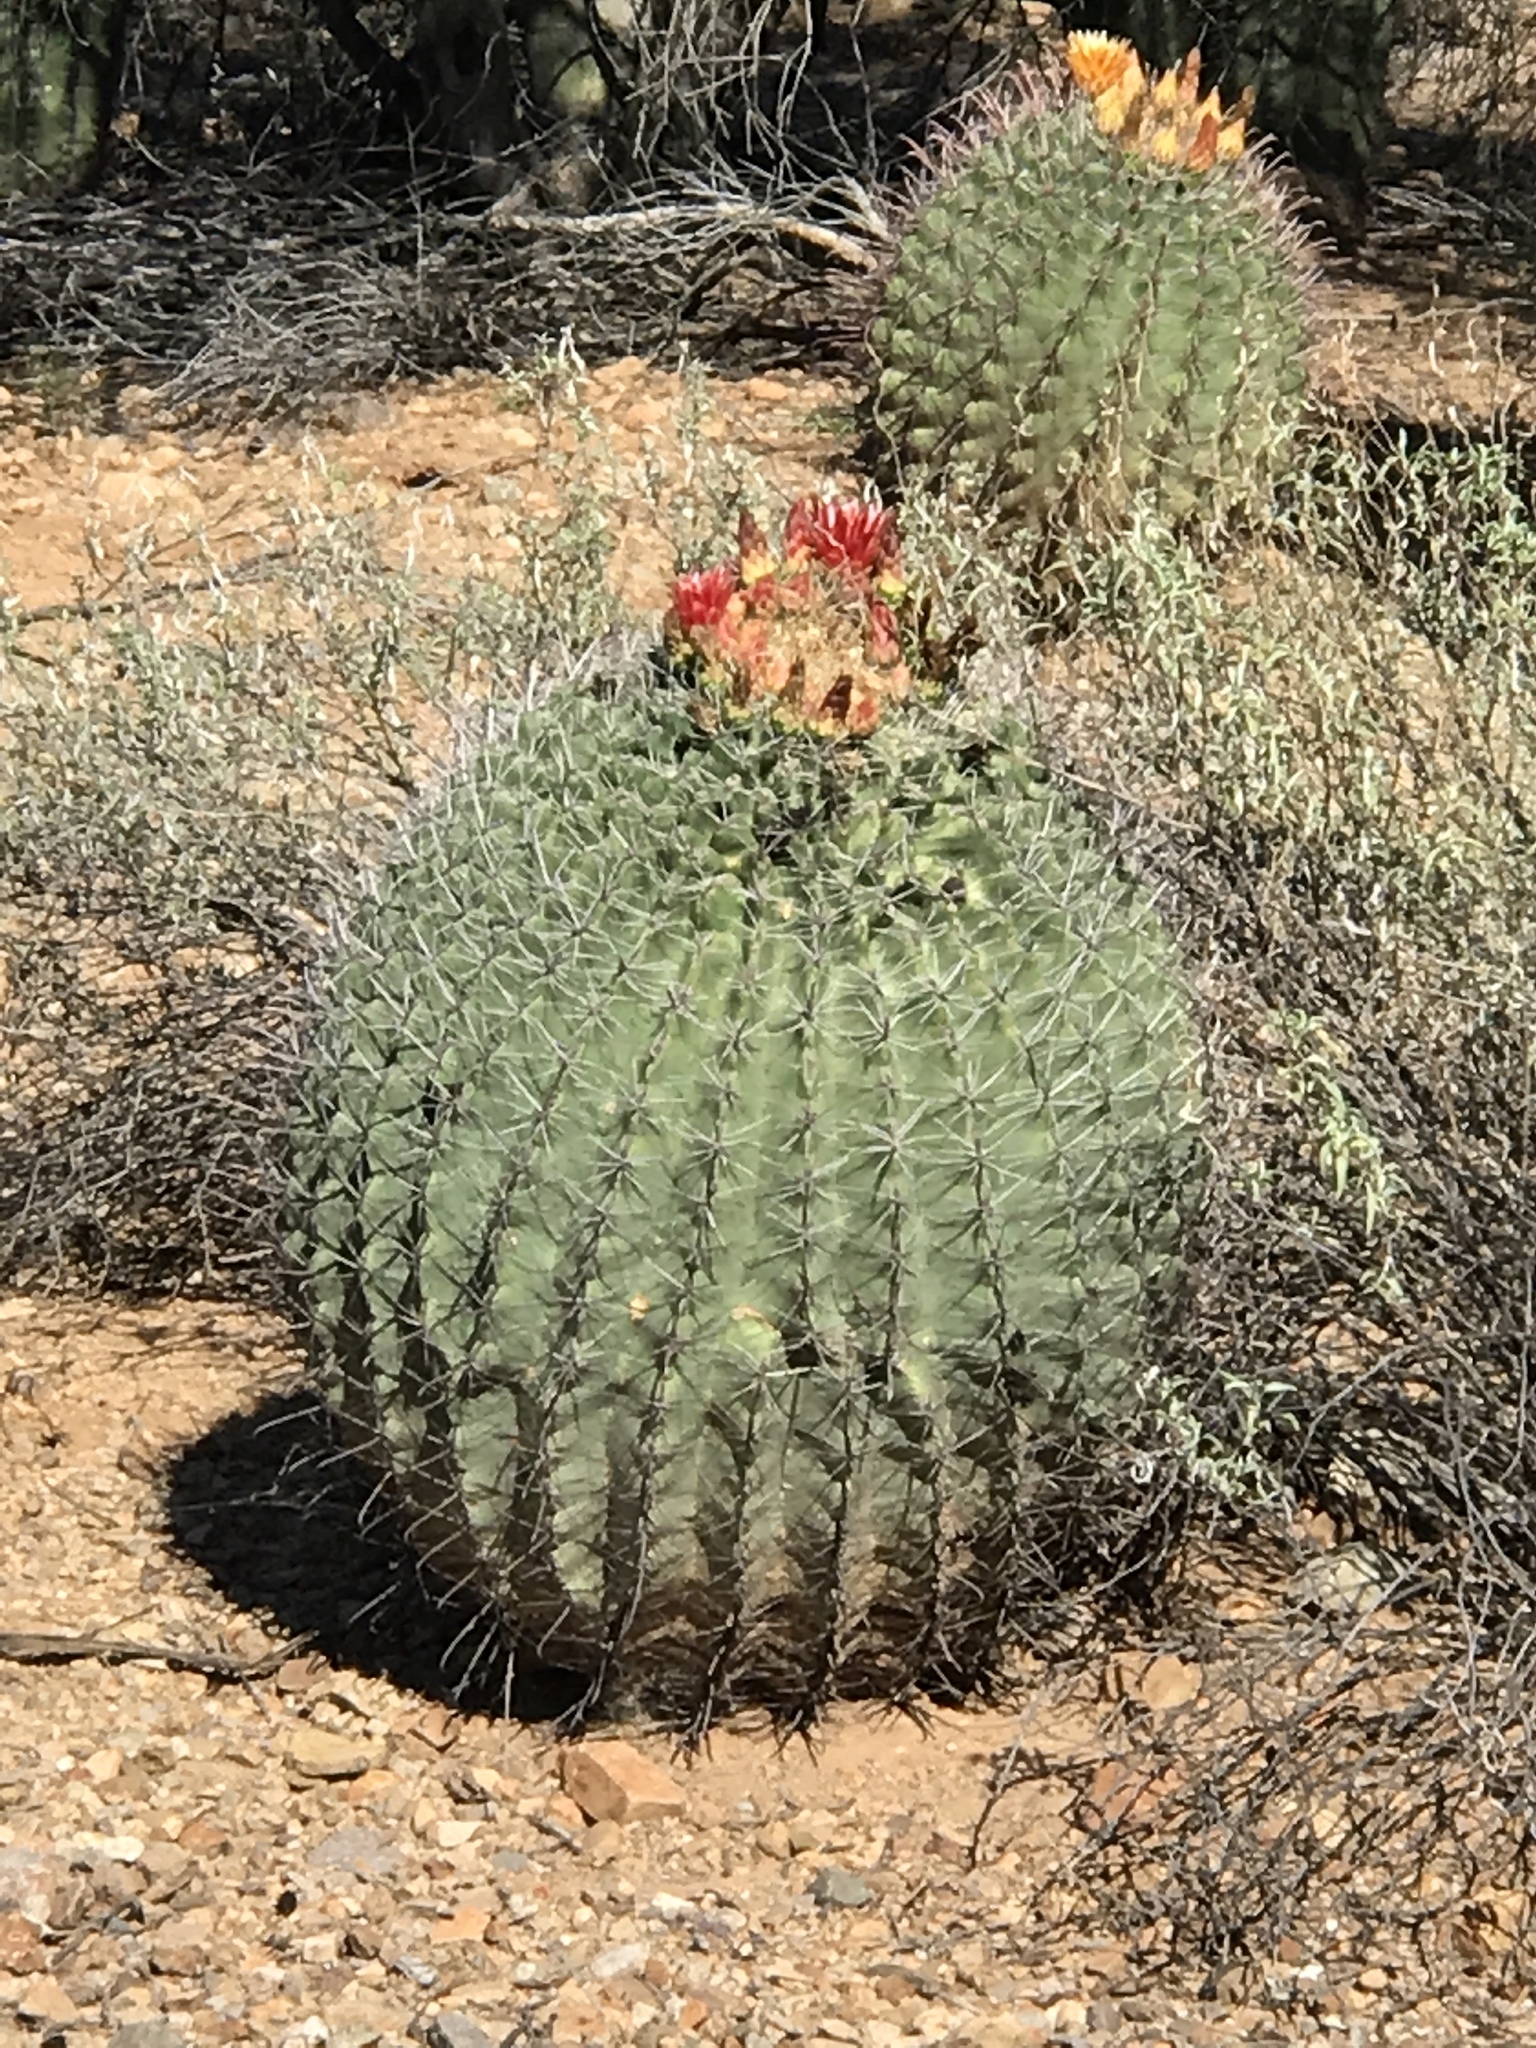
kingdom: Plantae
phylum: Tracheophyta
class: Magnoliopsida
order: Caryophyllales
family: Cactaceae
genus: Ferocactus
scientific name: Ferocactus wislizeni
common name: Candy barrel cactus
